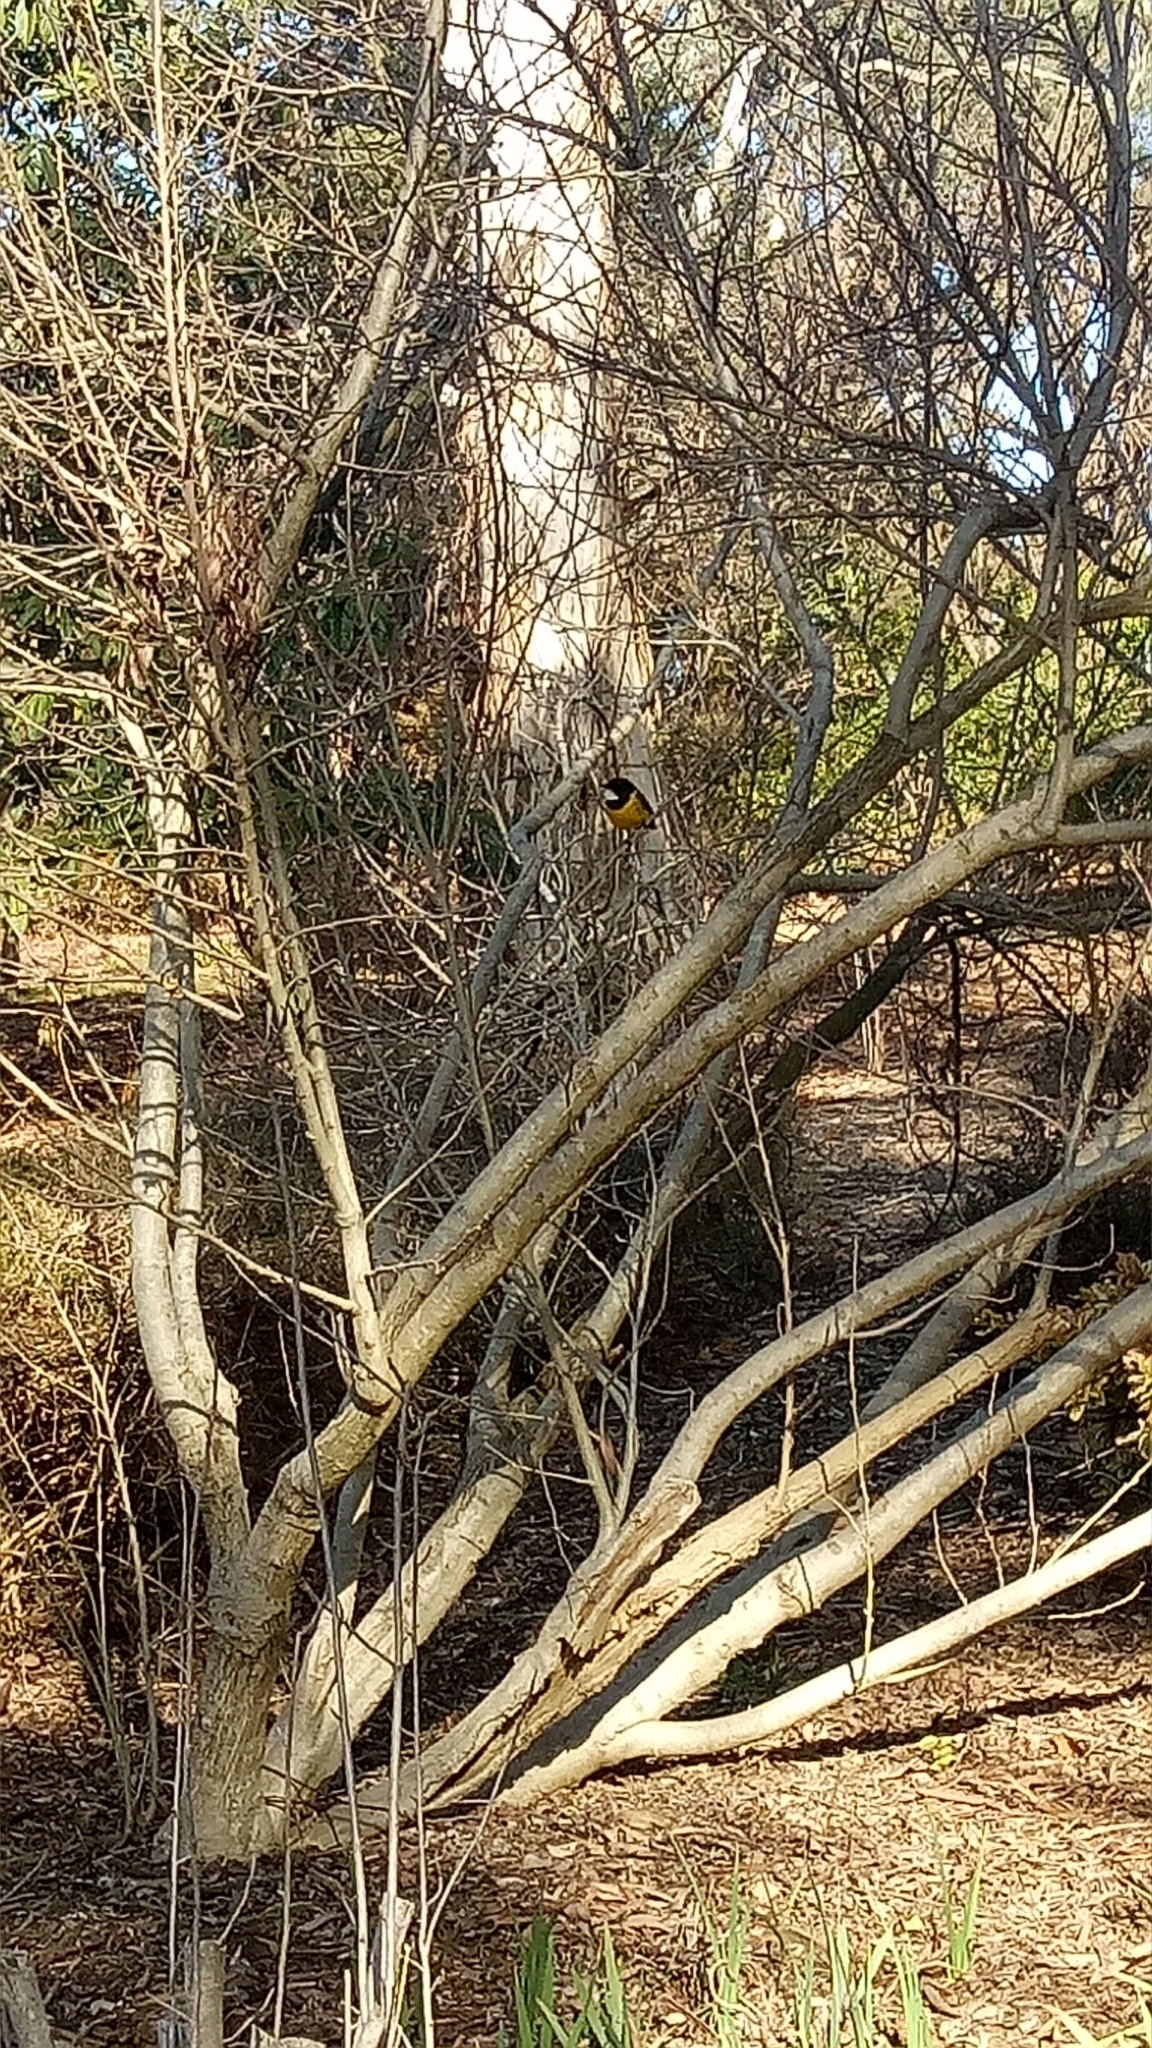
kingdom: Animalia
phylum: Chordata
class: Aves
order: Passeriformes
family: Pachycephalidae
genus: Pachycephala
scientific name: Pachycephala pectoralis
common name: Australian golden whistler
